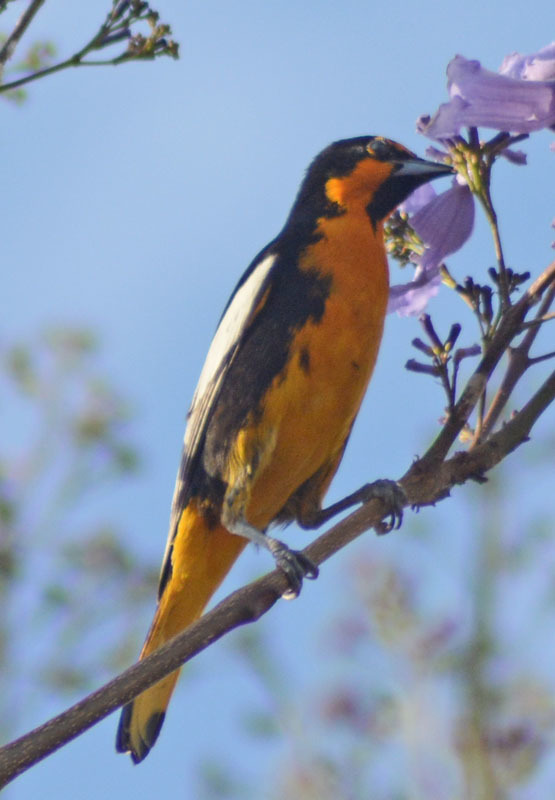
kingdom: Animalia
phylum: Chordata
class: Aves
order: Passeriformes
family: Icteridae
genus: Icterus
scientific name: Icterus abeillei
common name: Black-backed oriole
